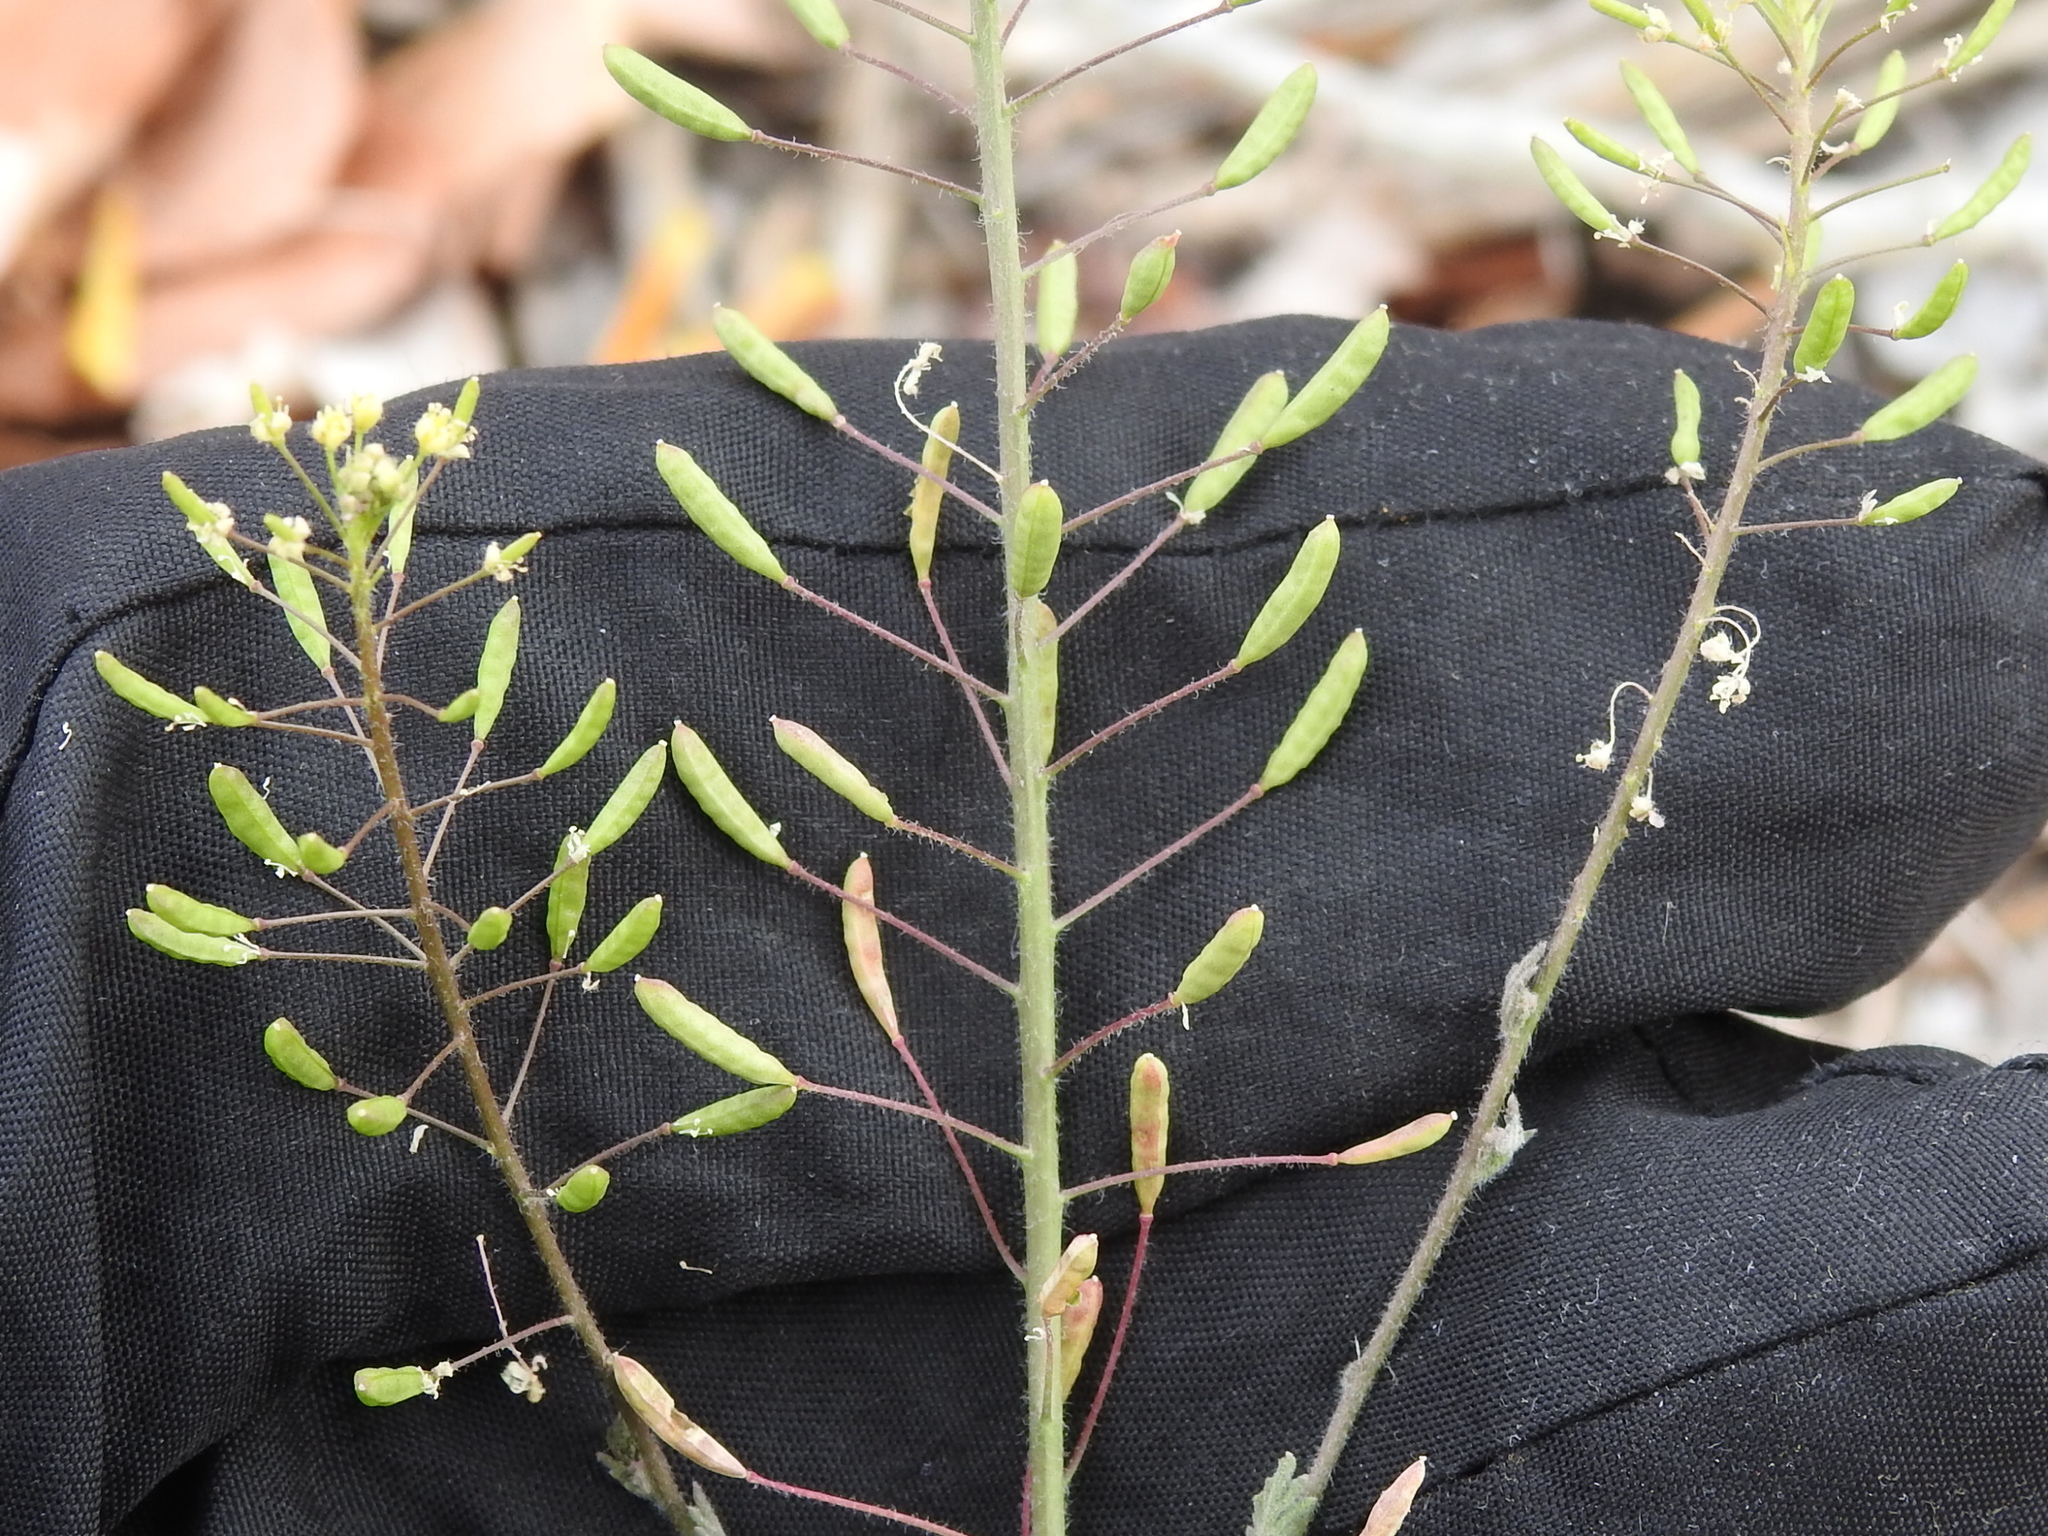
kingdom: Plantae
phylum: Tracheophyta
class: Magnoliopsida
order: Brassicales
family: Brassicaceae
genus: Descurainia
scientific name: Descurainia pinnata
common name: Western tansy mustard
